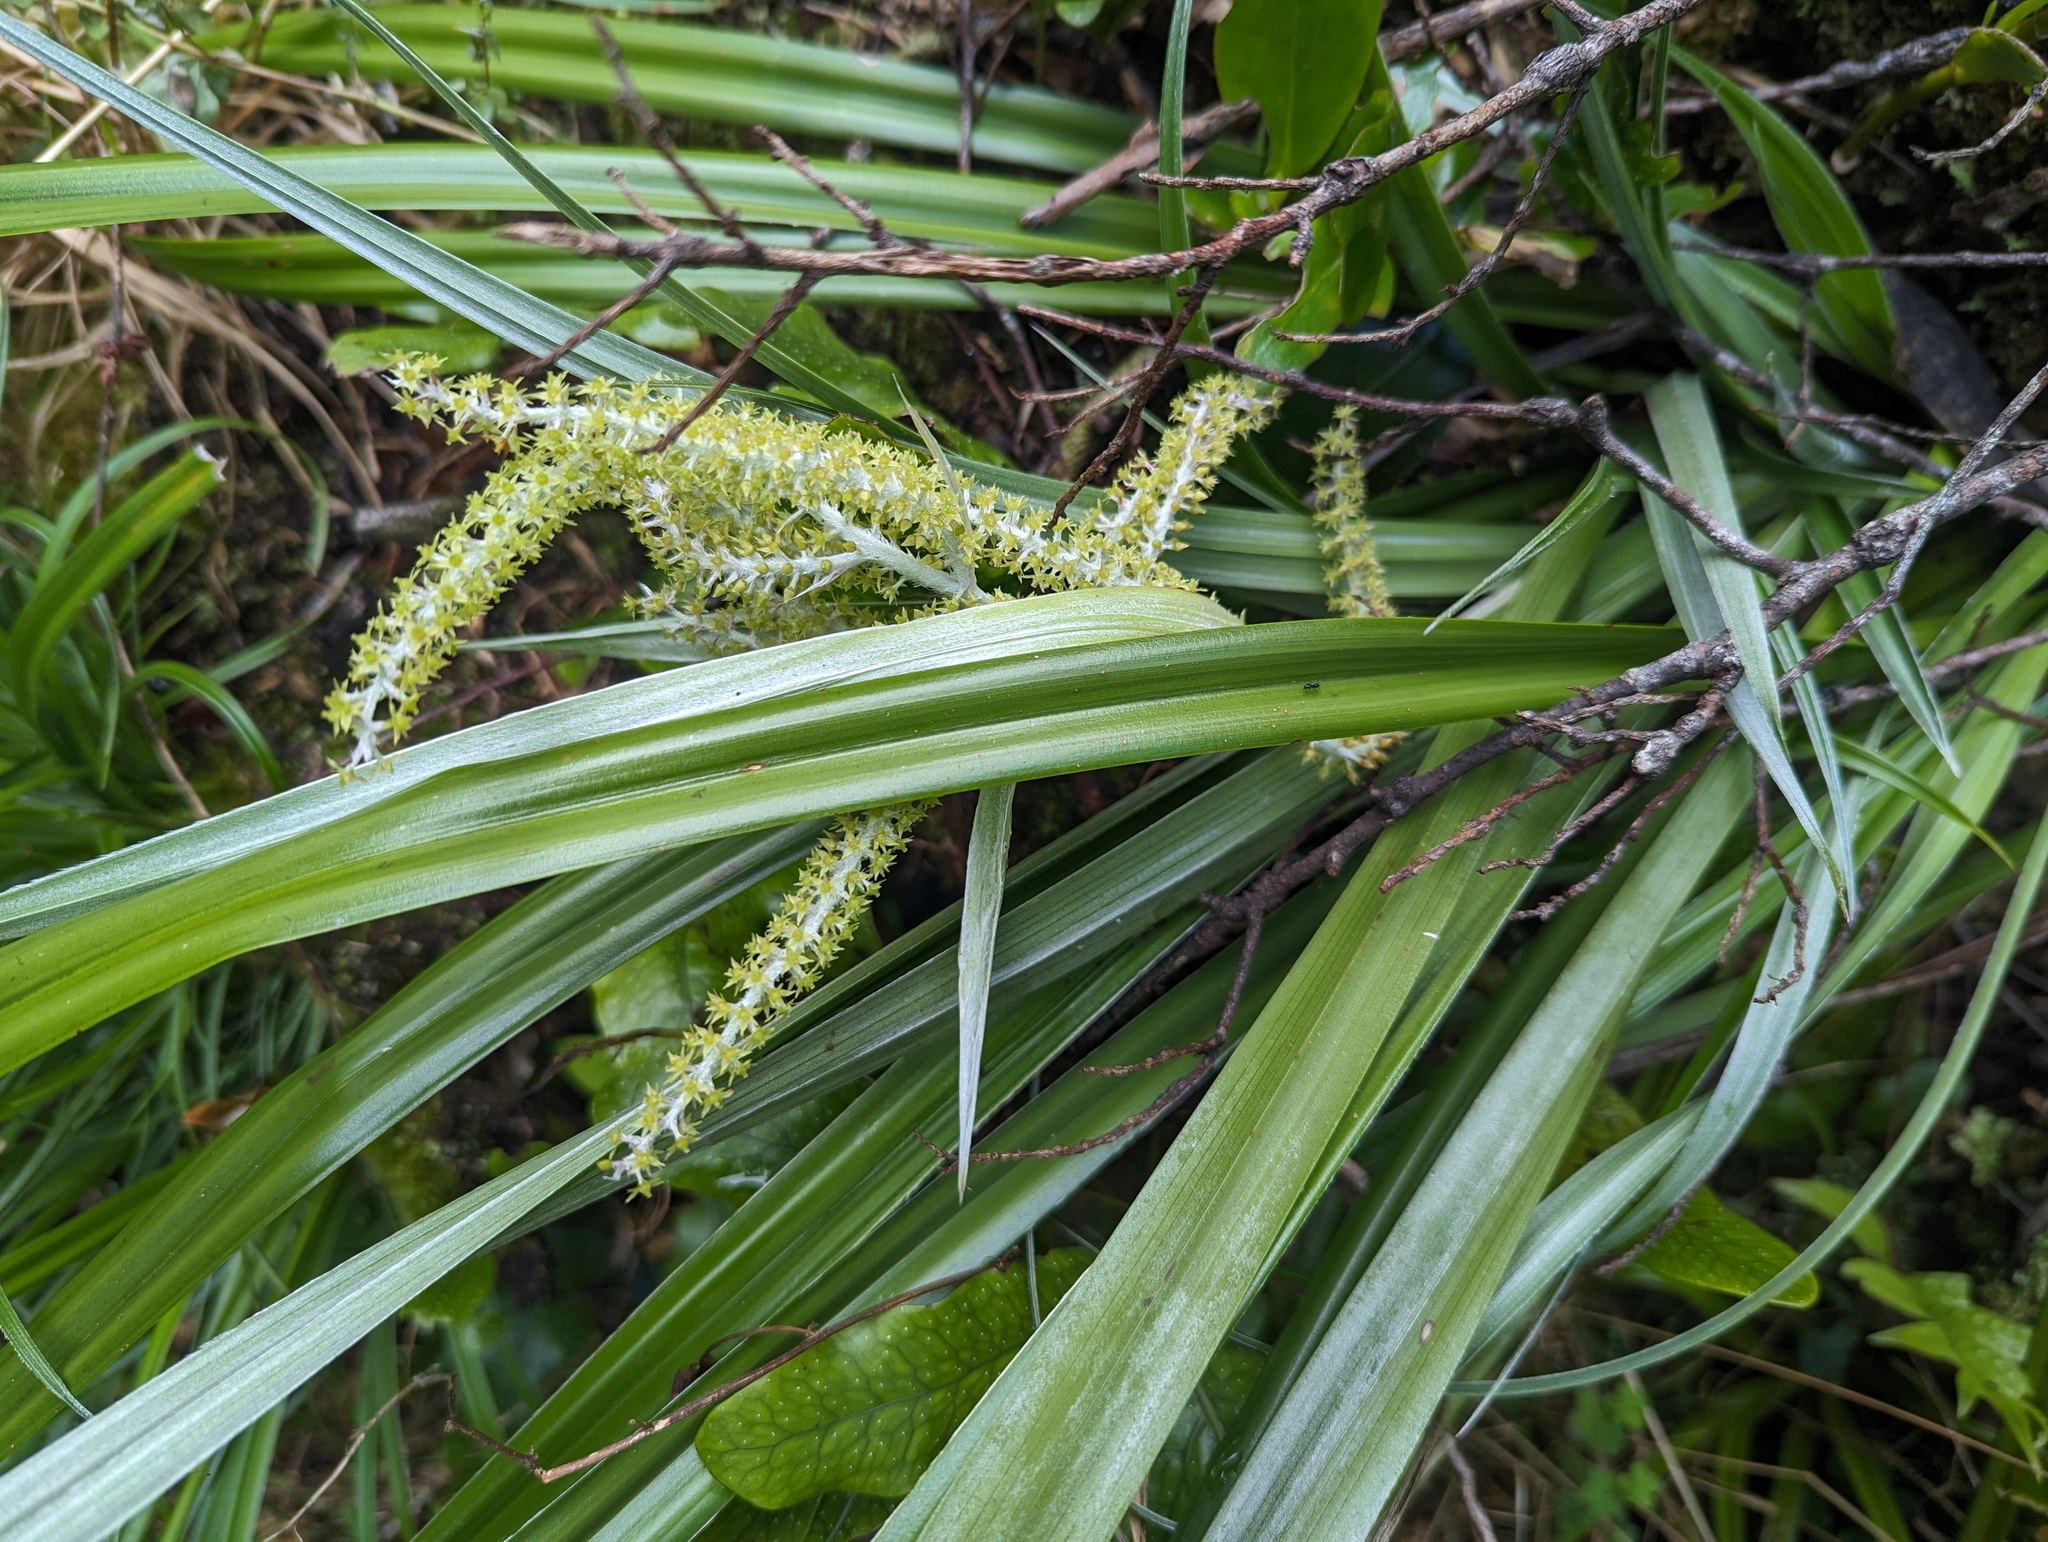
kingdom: Plantae
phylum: Tracheophyta
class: Liliopsida
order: Asparagales
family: Asteliaceae
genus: Astelia
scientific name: Astelia trinervia
